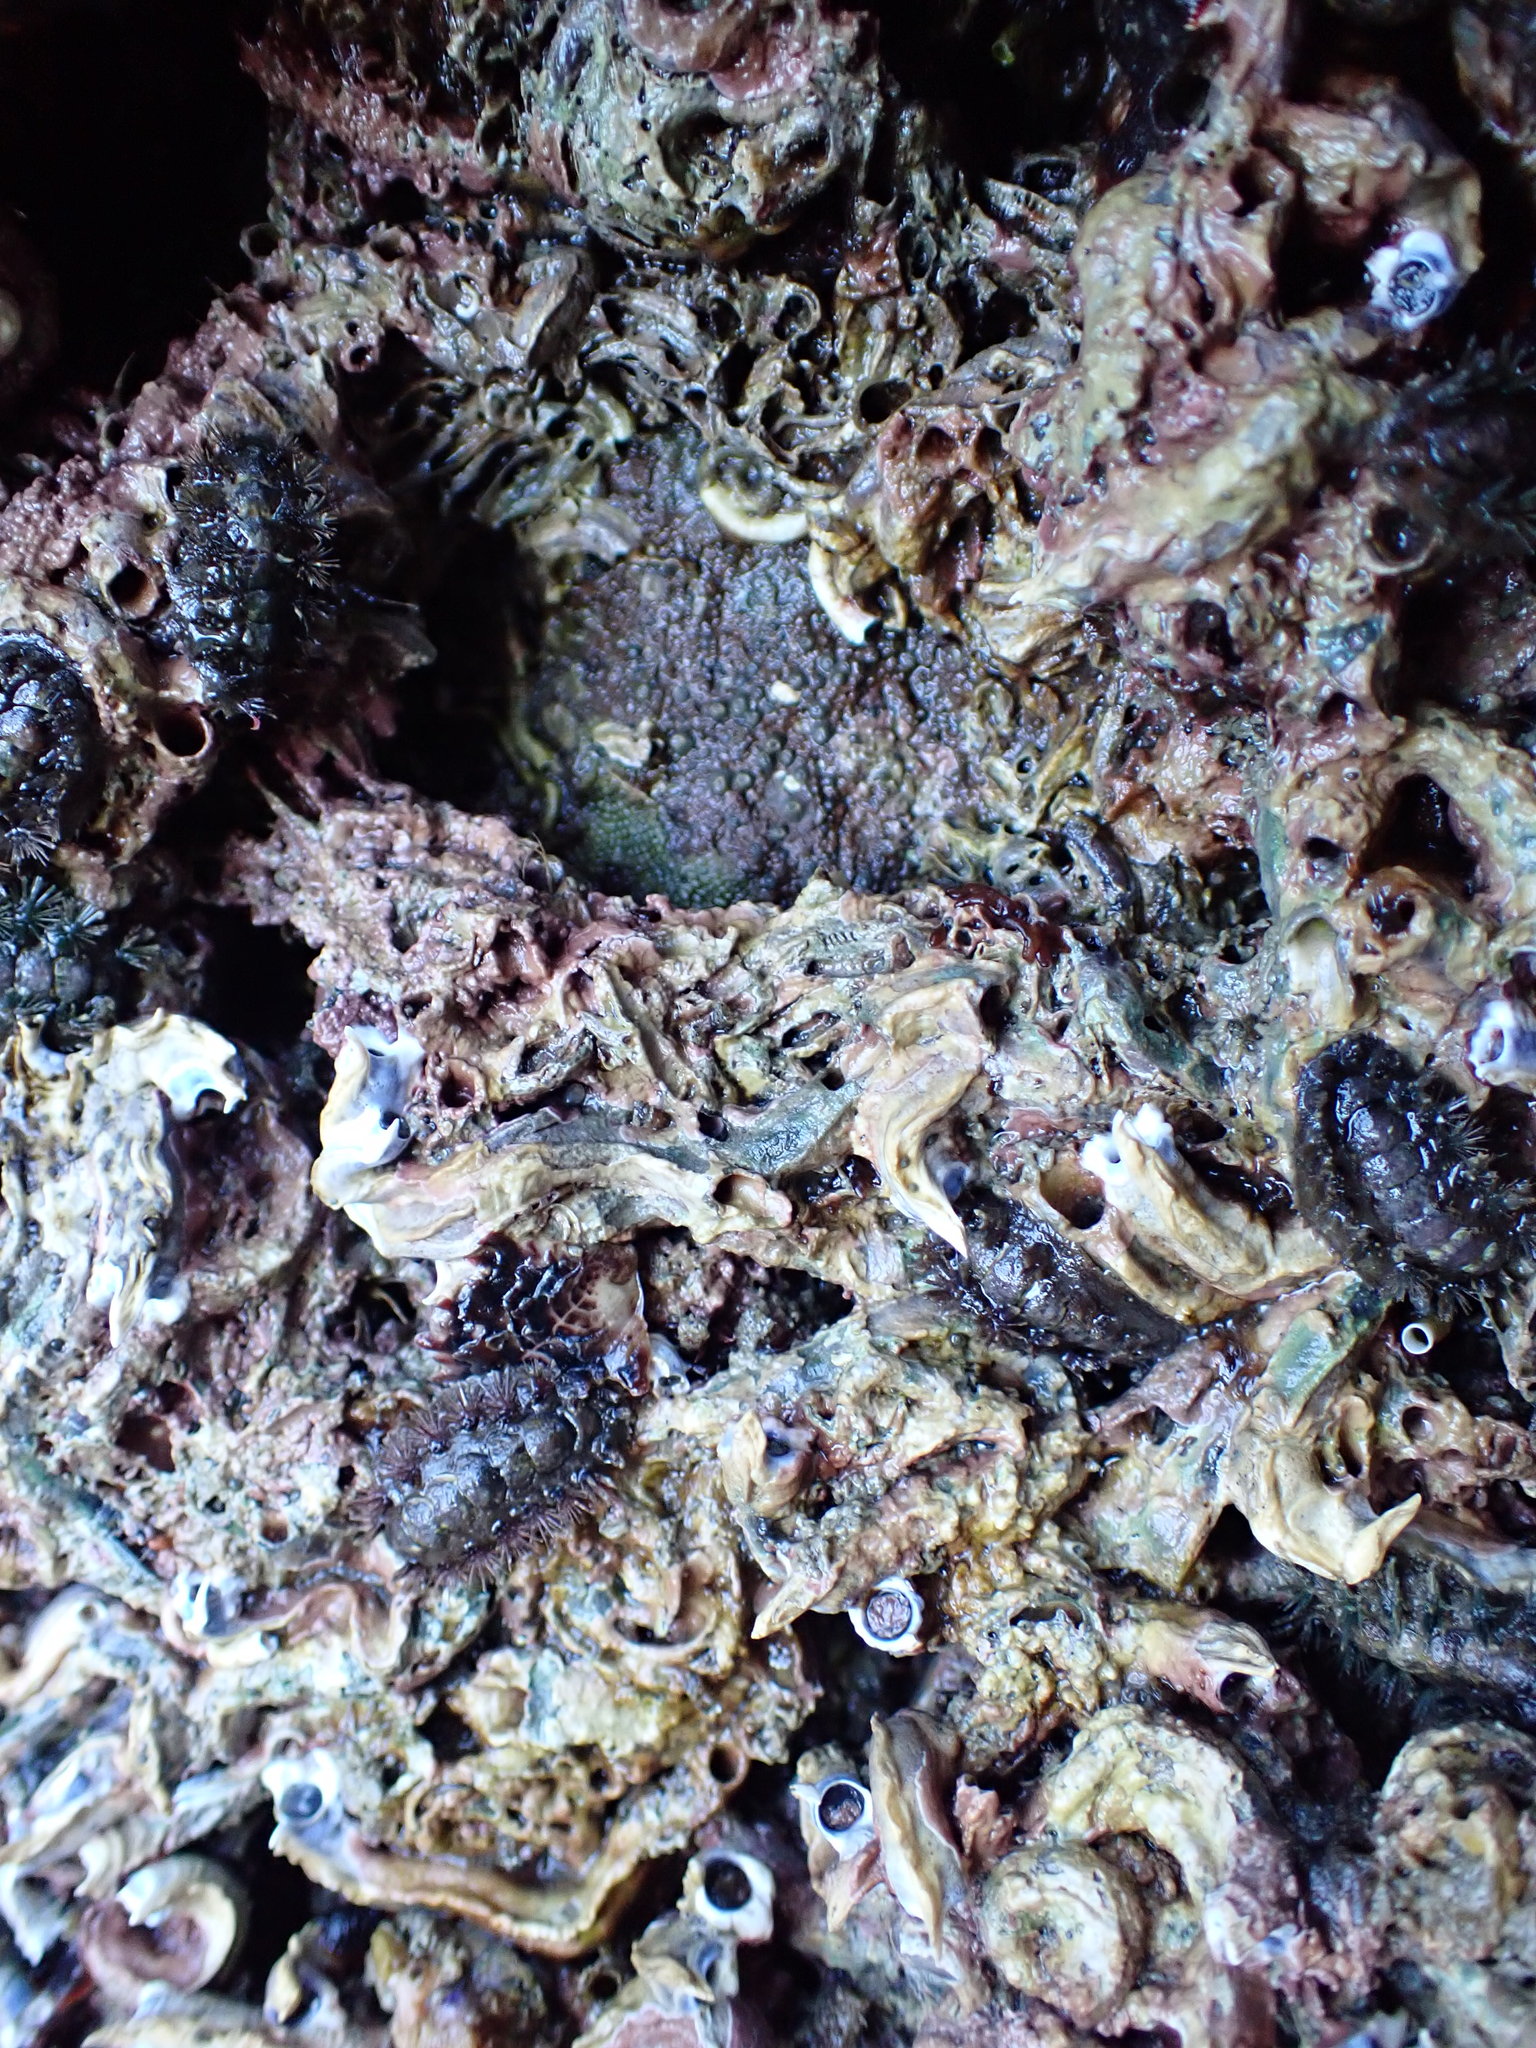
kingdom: Animalia
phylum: Annelida
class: Polychaeta
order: Sabellida
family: Serpulidae
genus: Spirobranchus
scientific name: Spirobranchus cariniferus
